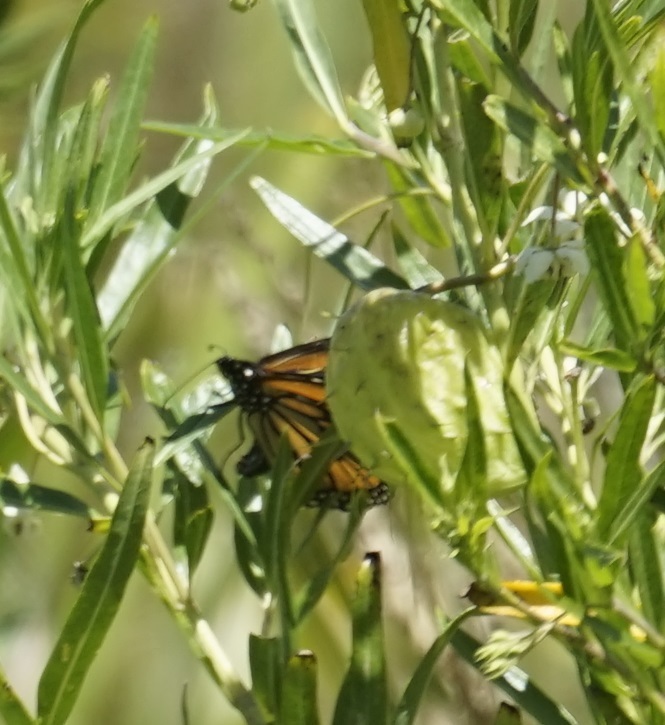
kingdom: Animalia
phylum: Arthropoda
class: Insecta
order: Lepidoptera
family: Nymphalidae
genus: Danaus
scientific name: Danaus plexippus
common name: Monarch
